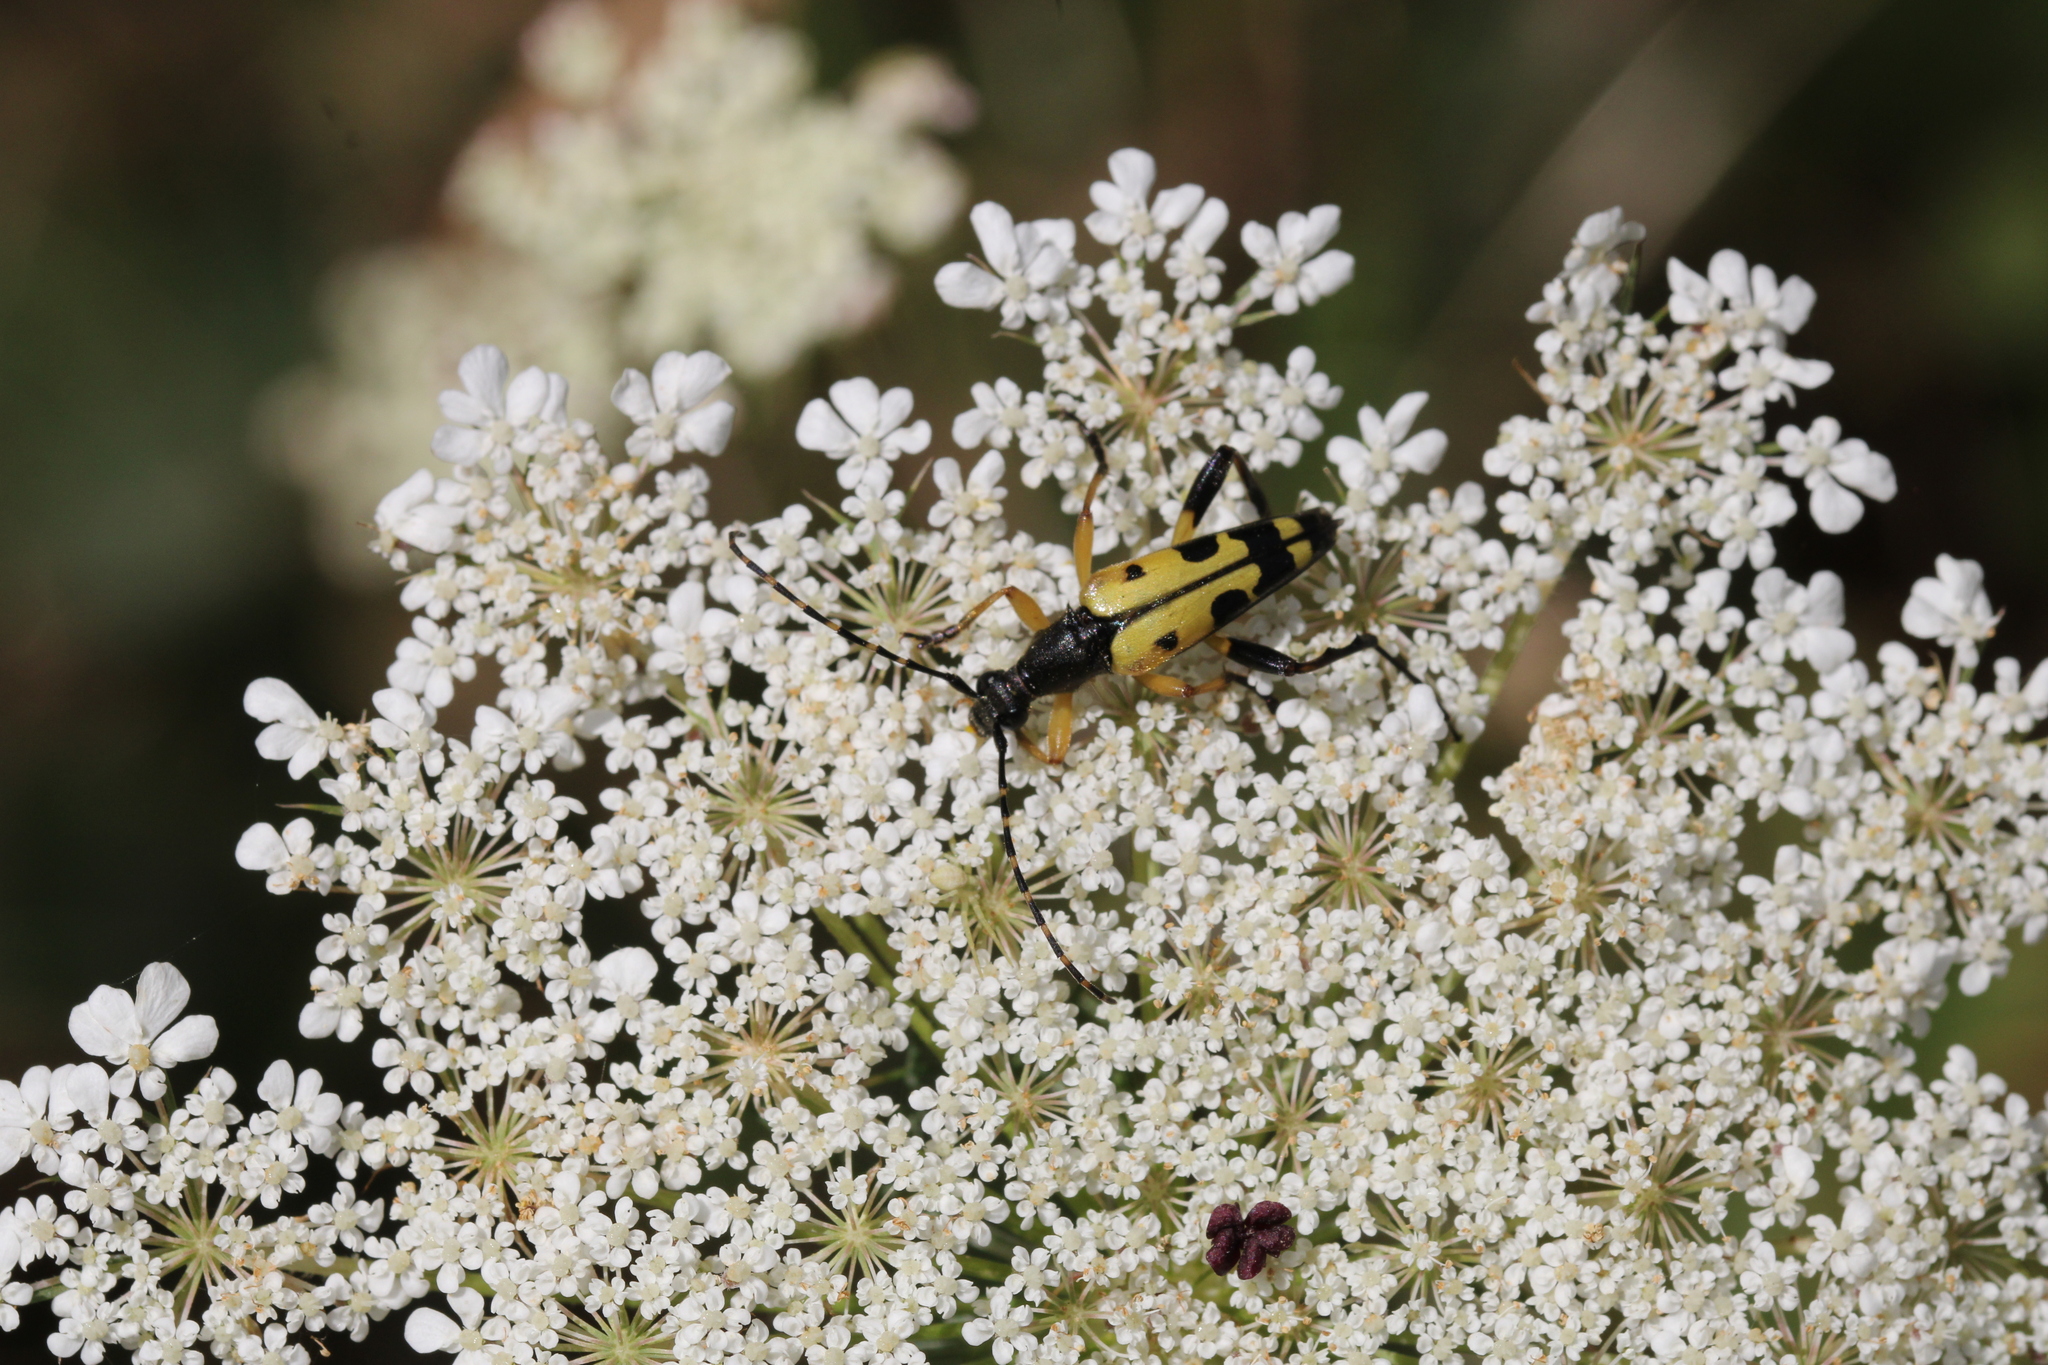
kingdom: Animalia
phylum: Arthropoda
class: Insecta
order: Coleoptera
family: Cerambycidae
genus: Rutpela
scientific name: Rutpela maculata
